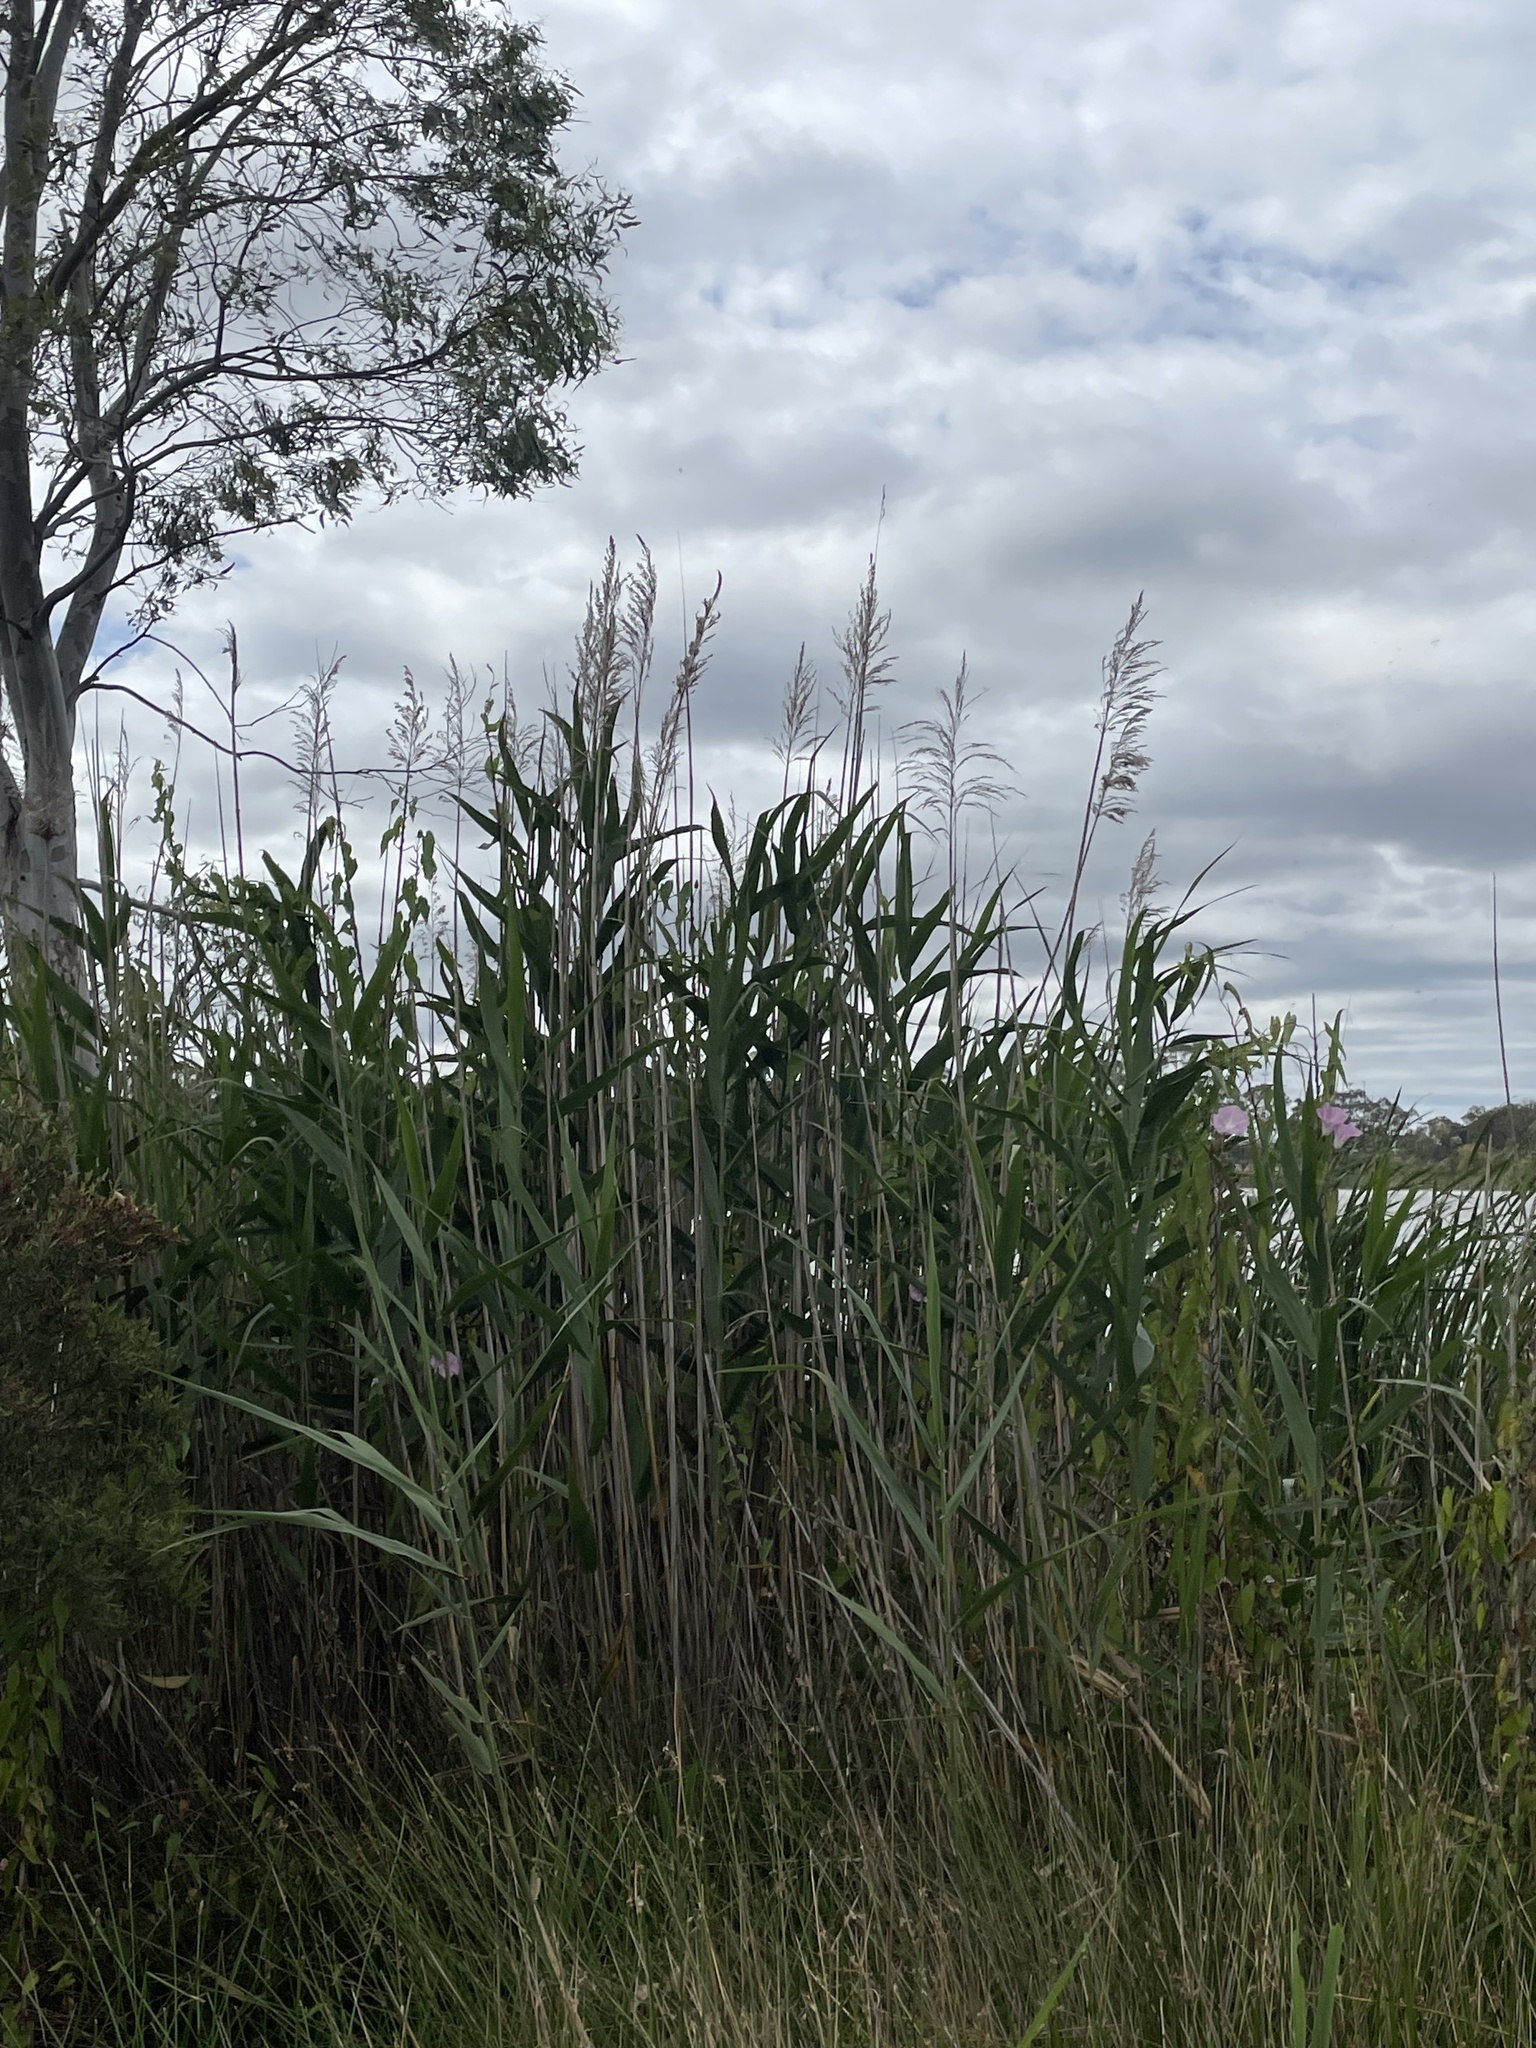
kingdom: Plantae
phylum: Tracheophyta
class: Liliopsida
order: Poales
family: Poaceae
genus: Phragmites
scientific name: Phragmites australis
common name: Common reed
